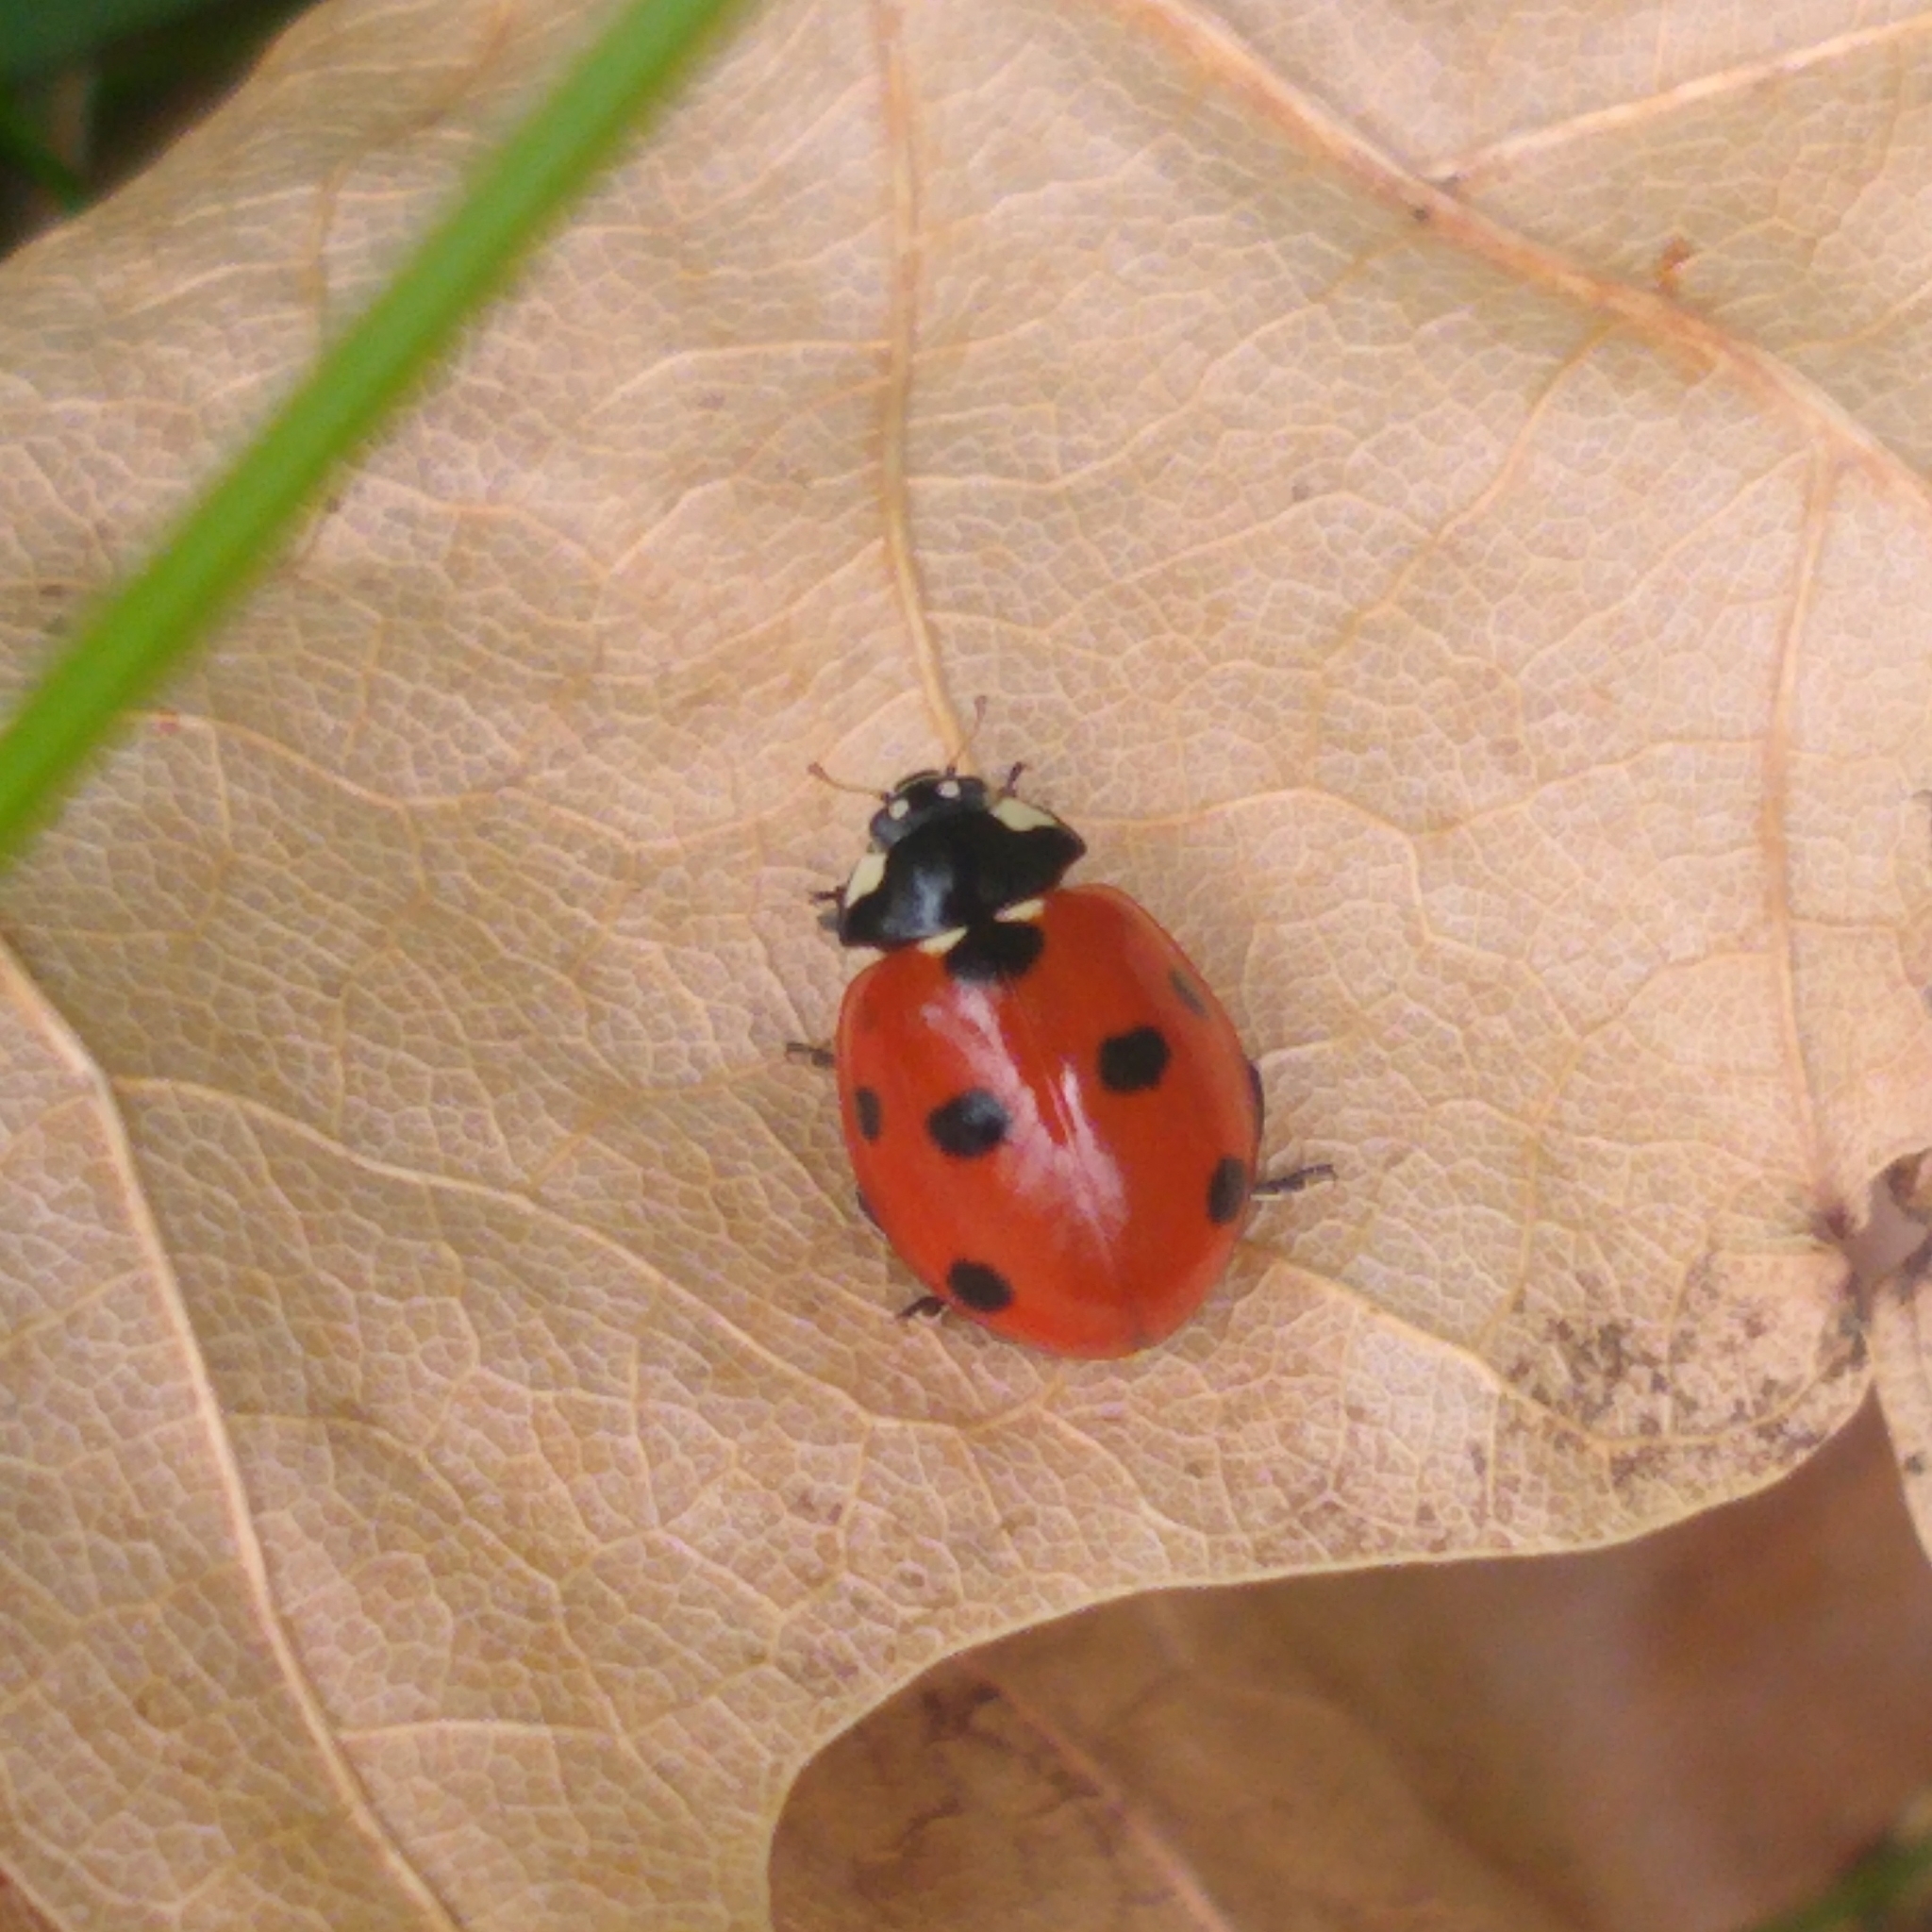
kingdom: Animalia
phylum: Arthropoda
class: Insecta
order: Coleoptera
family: Coccinellidae
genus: Coccinella
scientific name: Coccinella septempunctata
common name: Sevenspotted lady beetle
